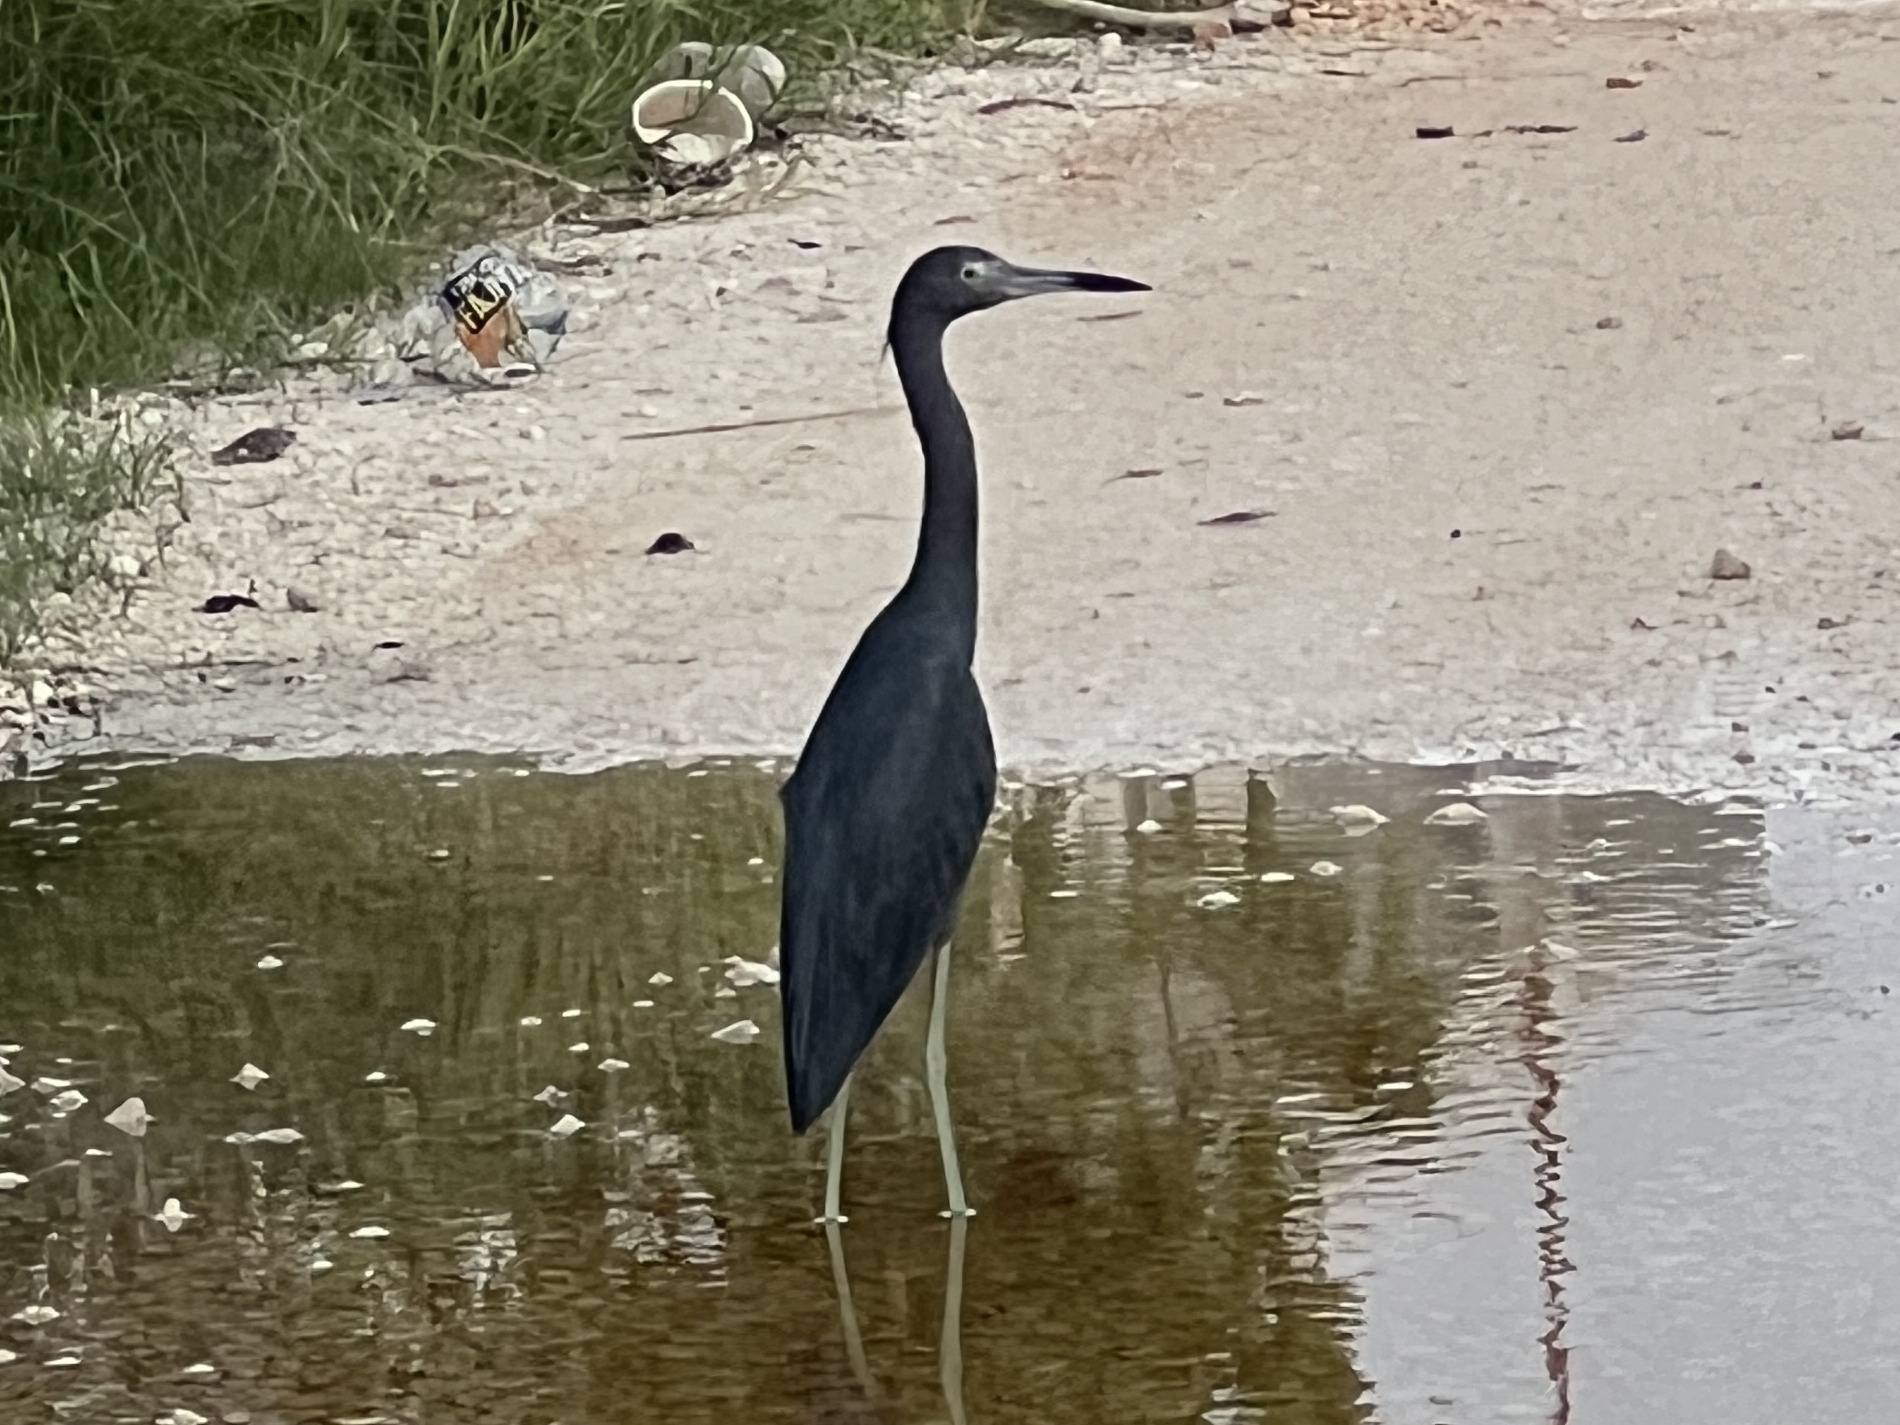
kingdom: Animalia
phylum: Chordata
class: Aves
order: Pelecaniformes
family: Ardeidae
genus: Egretta
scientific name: Egretta caerulea
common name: Little blue heron
